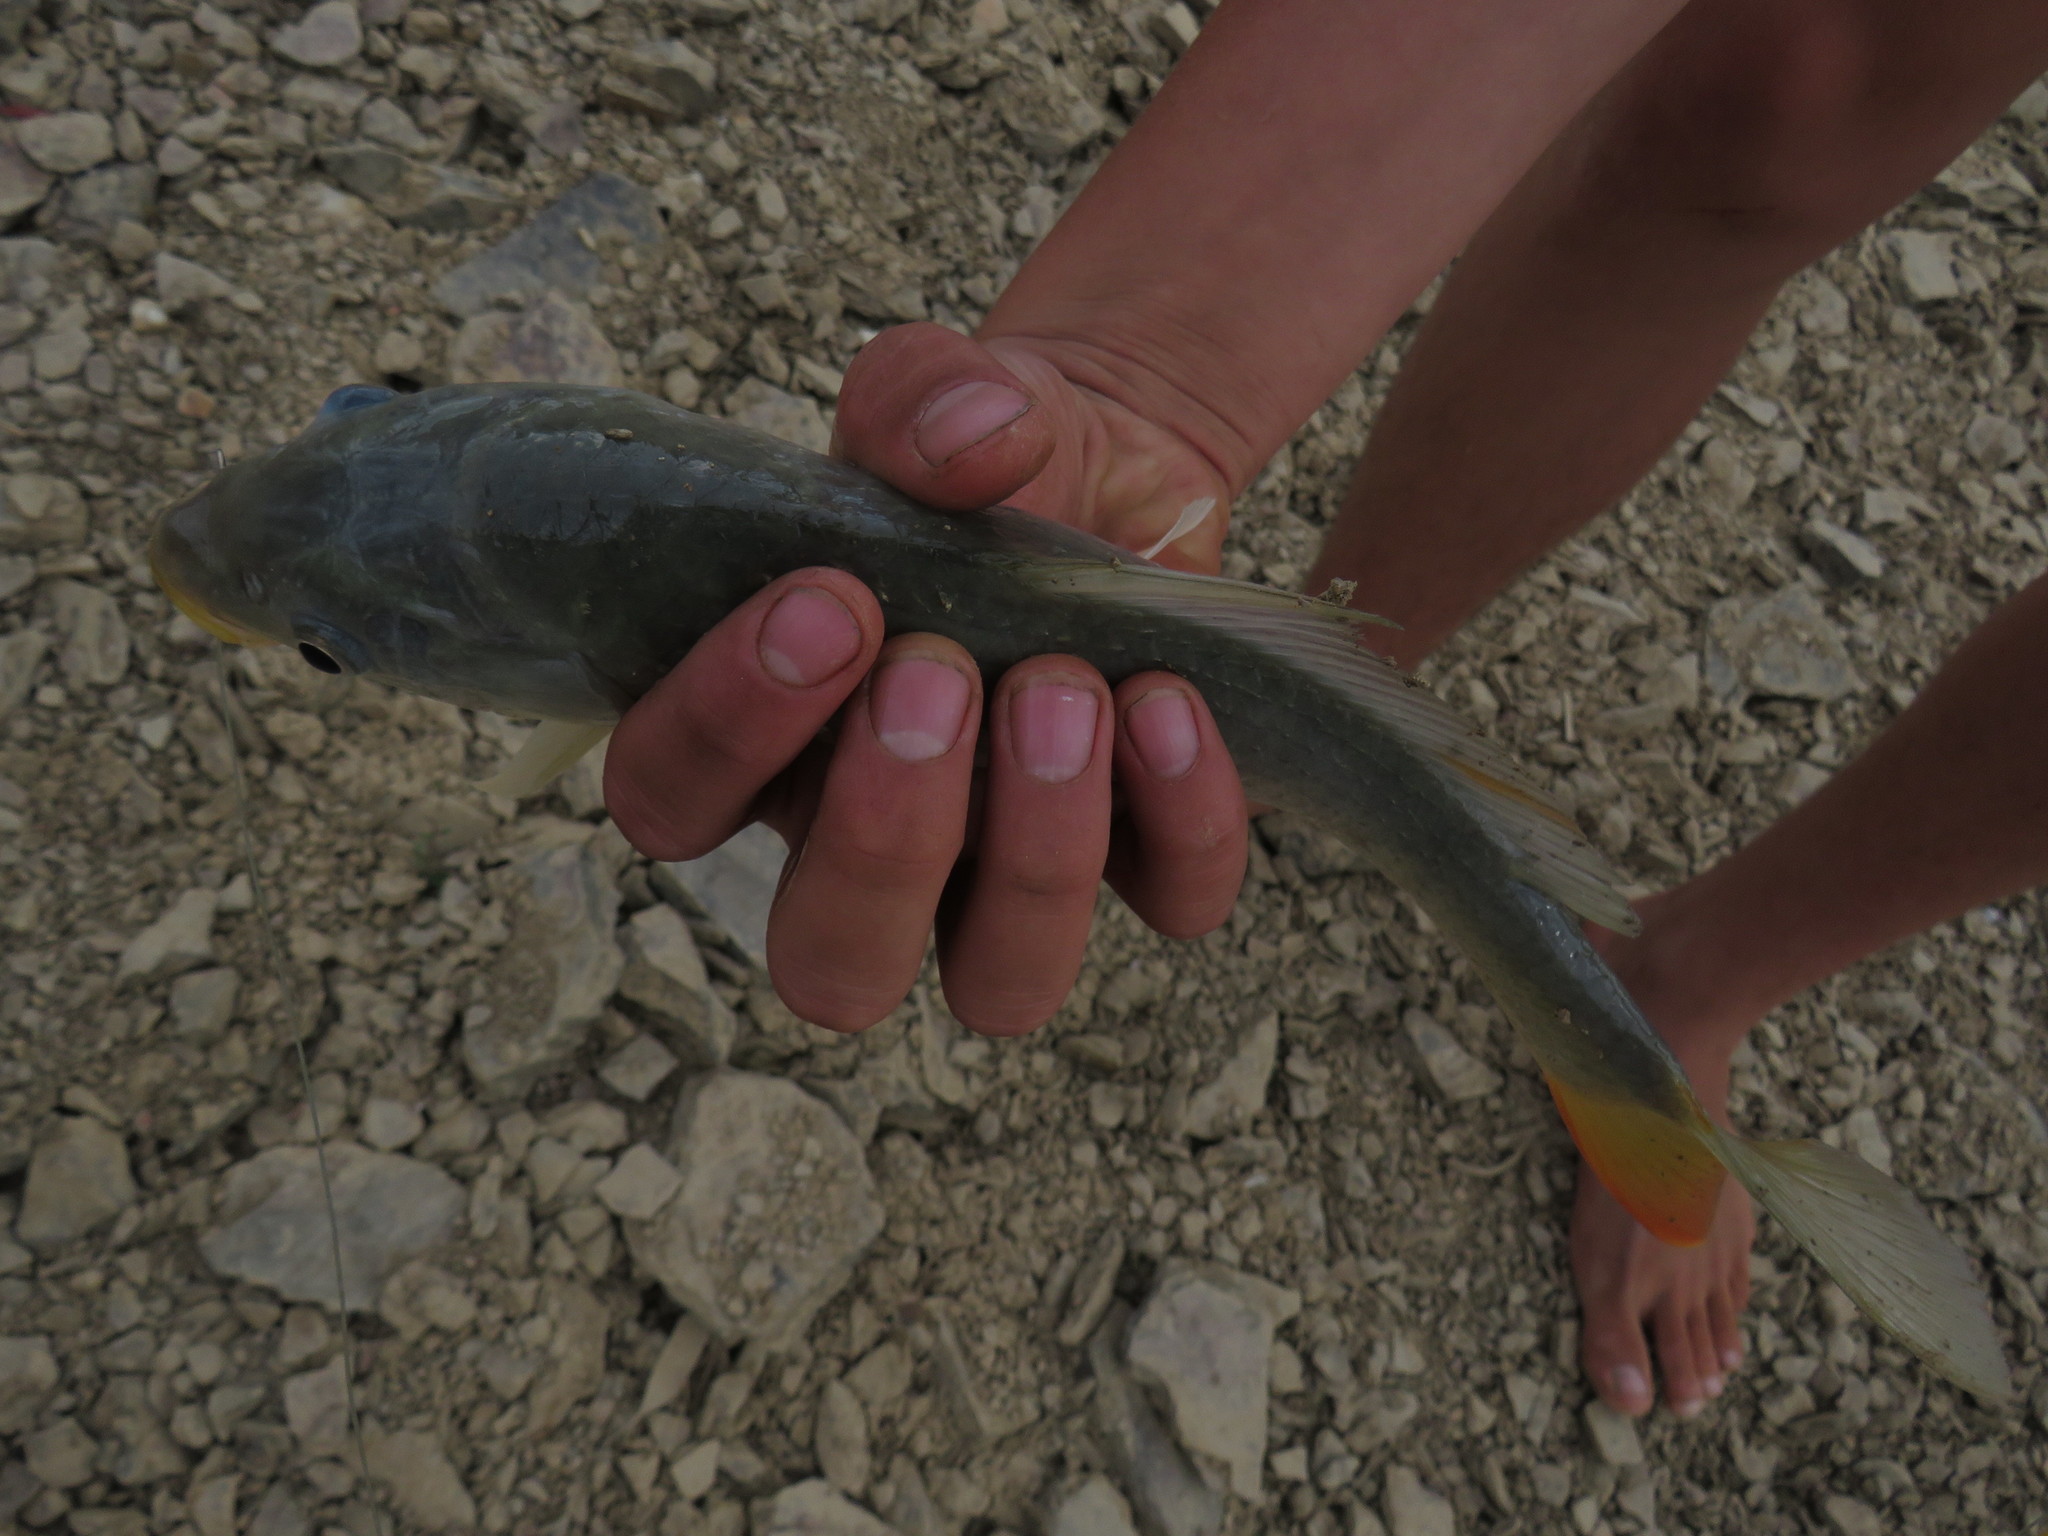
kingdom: Animalia
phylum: Chordata
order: Cypriniformes
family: Cyprinidae
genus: Cyprinus
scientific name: Cyprinus carpio
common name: Common carp
